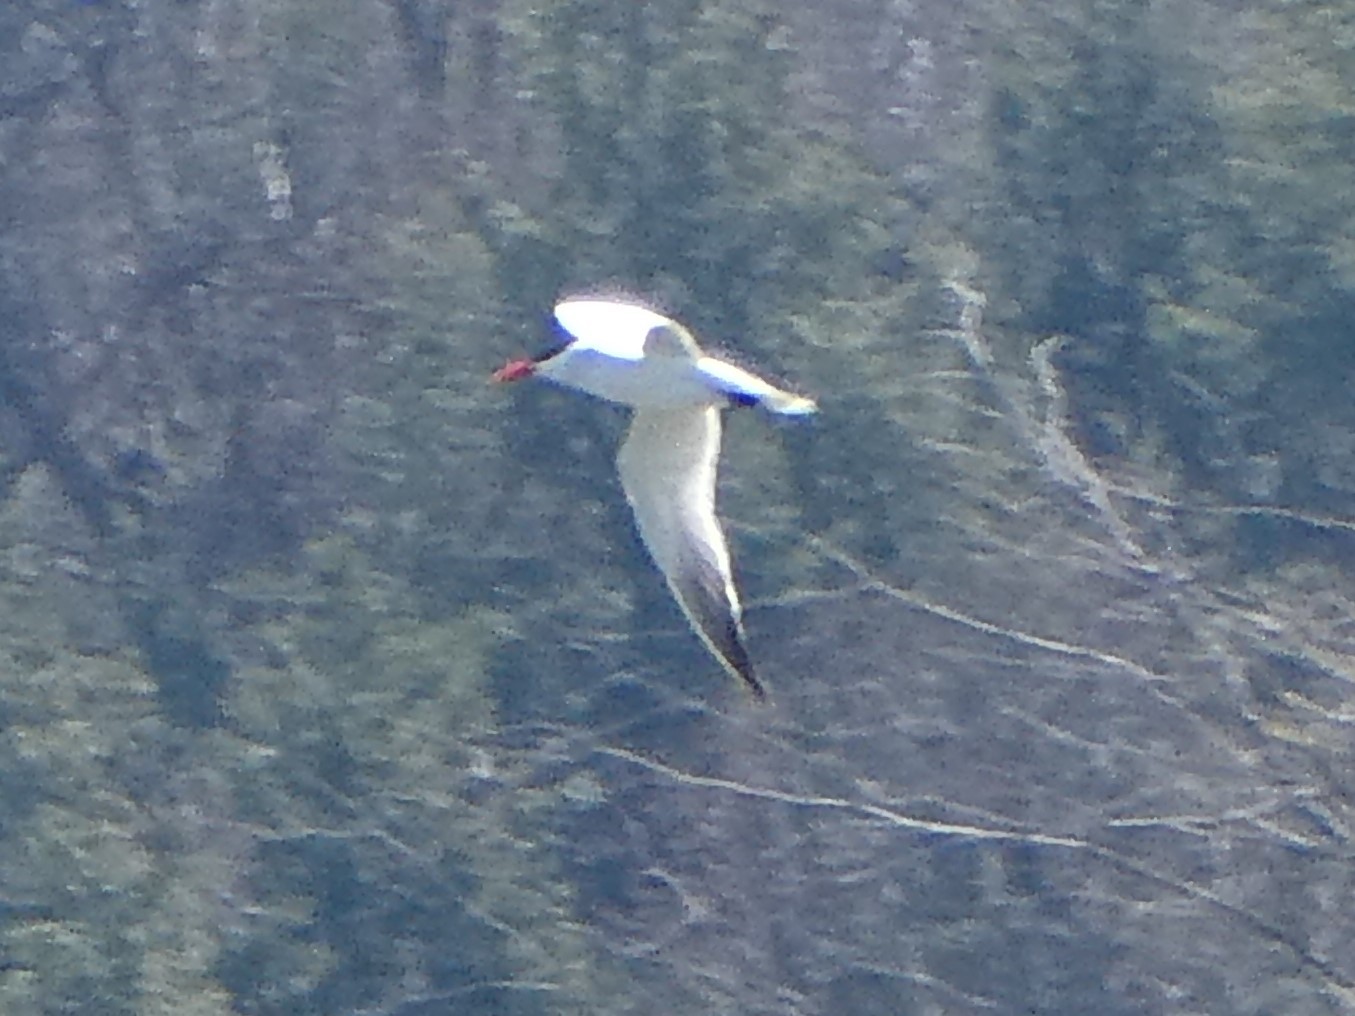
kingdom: Animalia
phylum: Chordata
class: Aves
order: Charadriiformes
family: Laridae
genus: Hydroprogne
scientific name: Hydroprogne caspia
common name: Caspian tern
